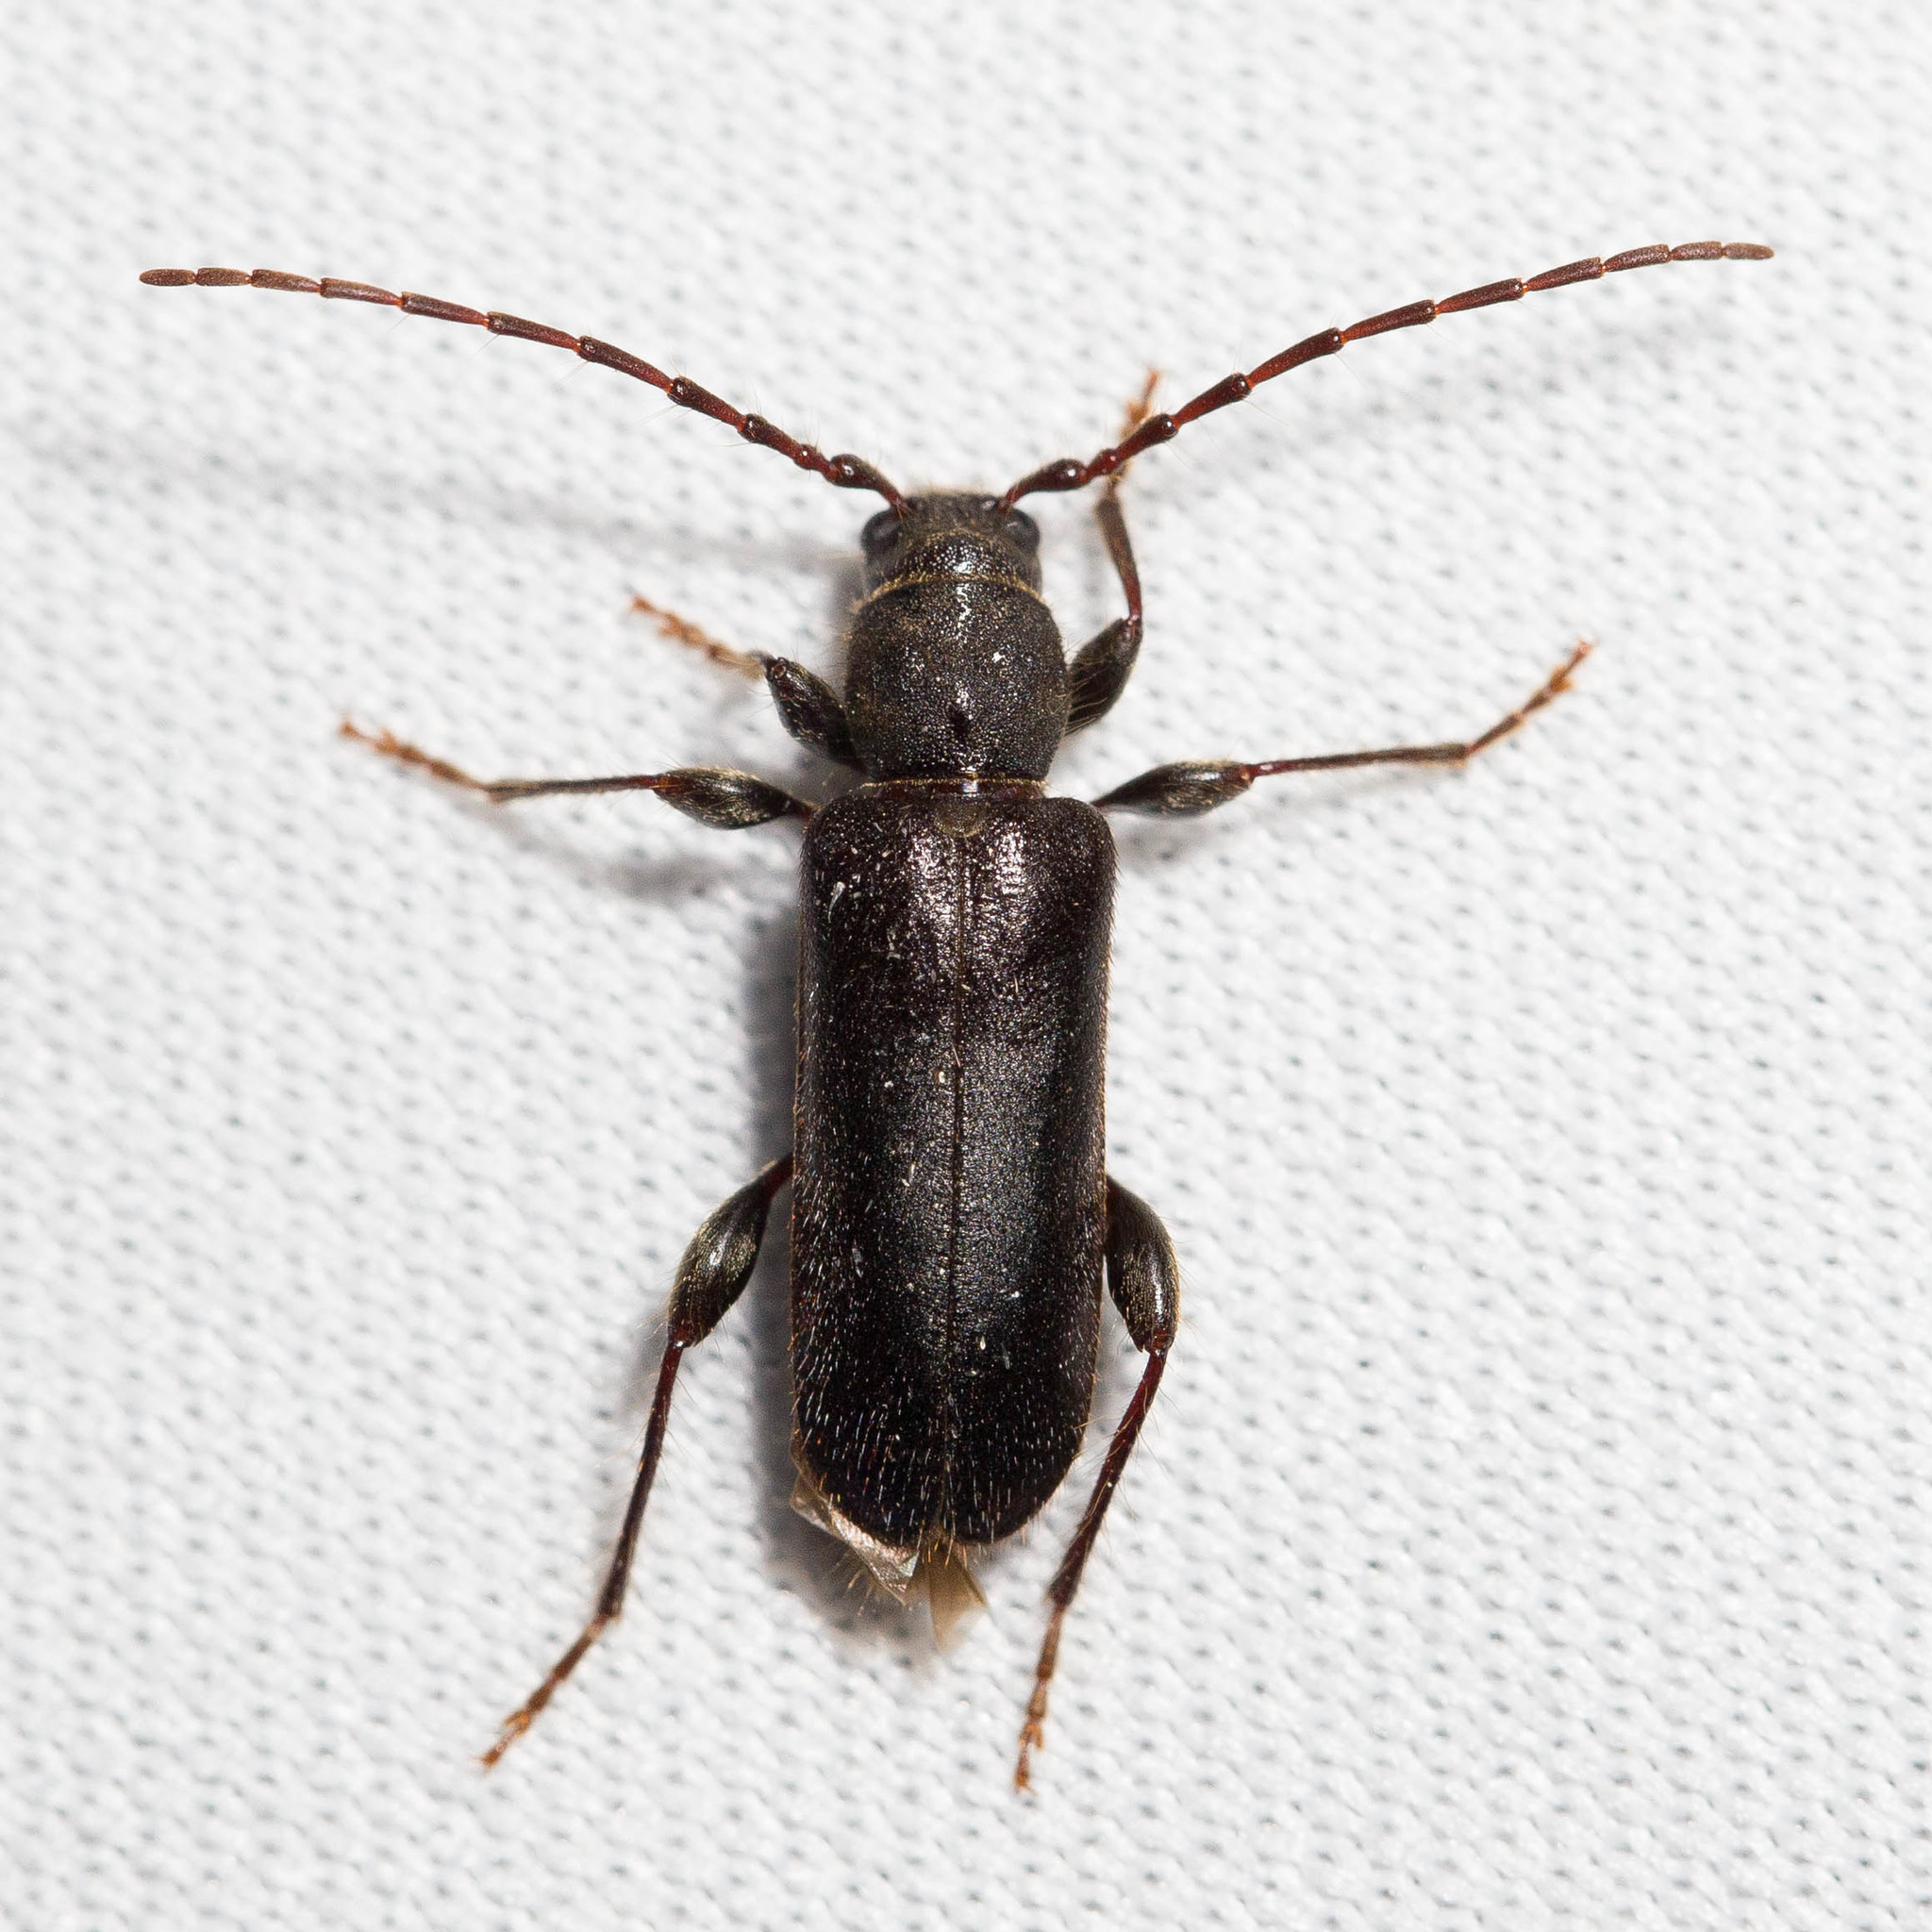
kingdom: Animalia
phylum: Arthropoda
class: Insecta
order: Coleoptera
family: Cerambycidae
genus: Phymatodes
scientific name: Phymatodes grandis
